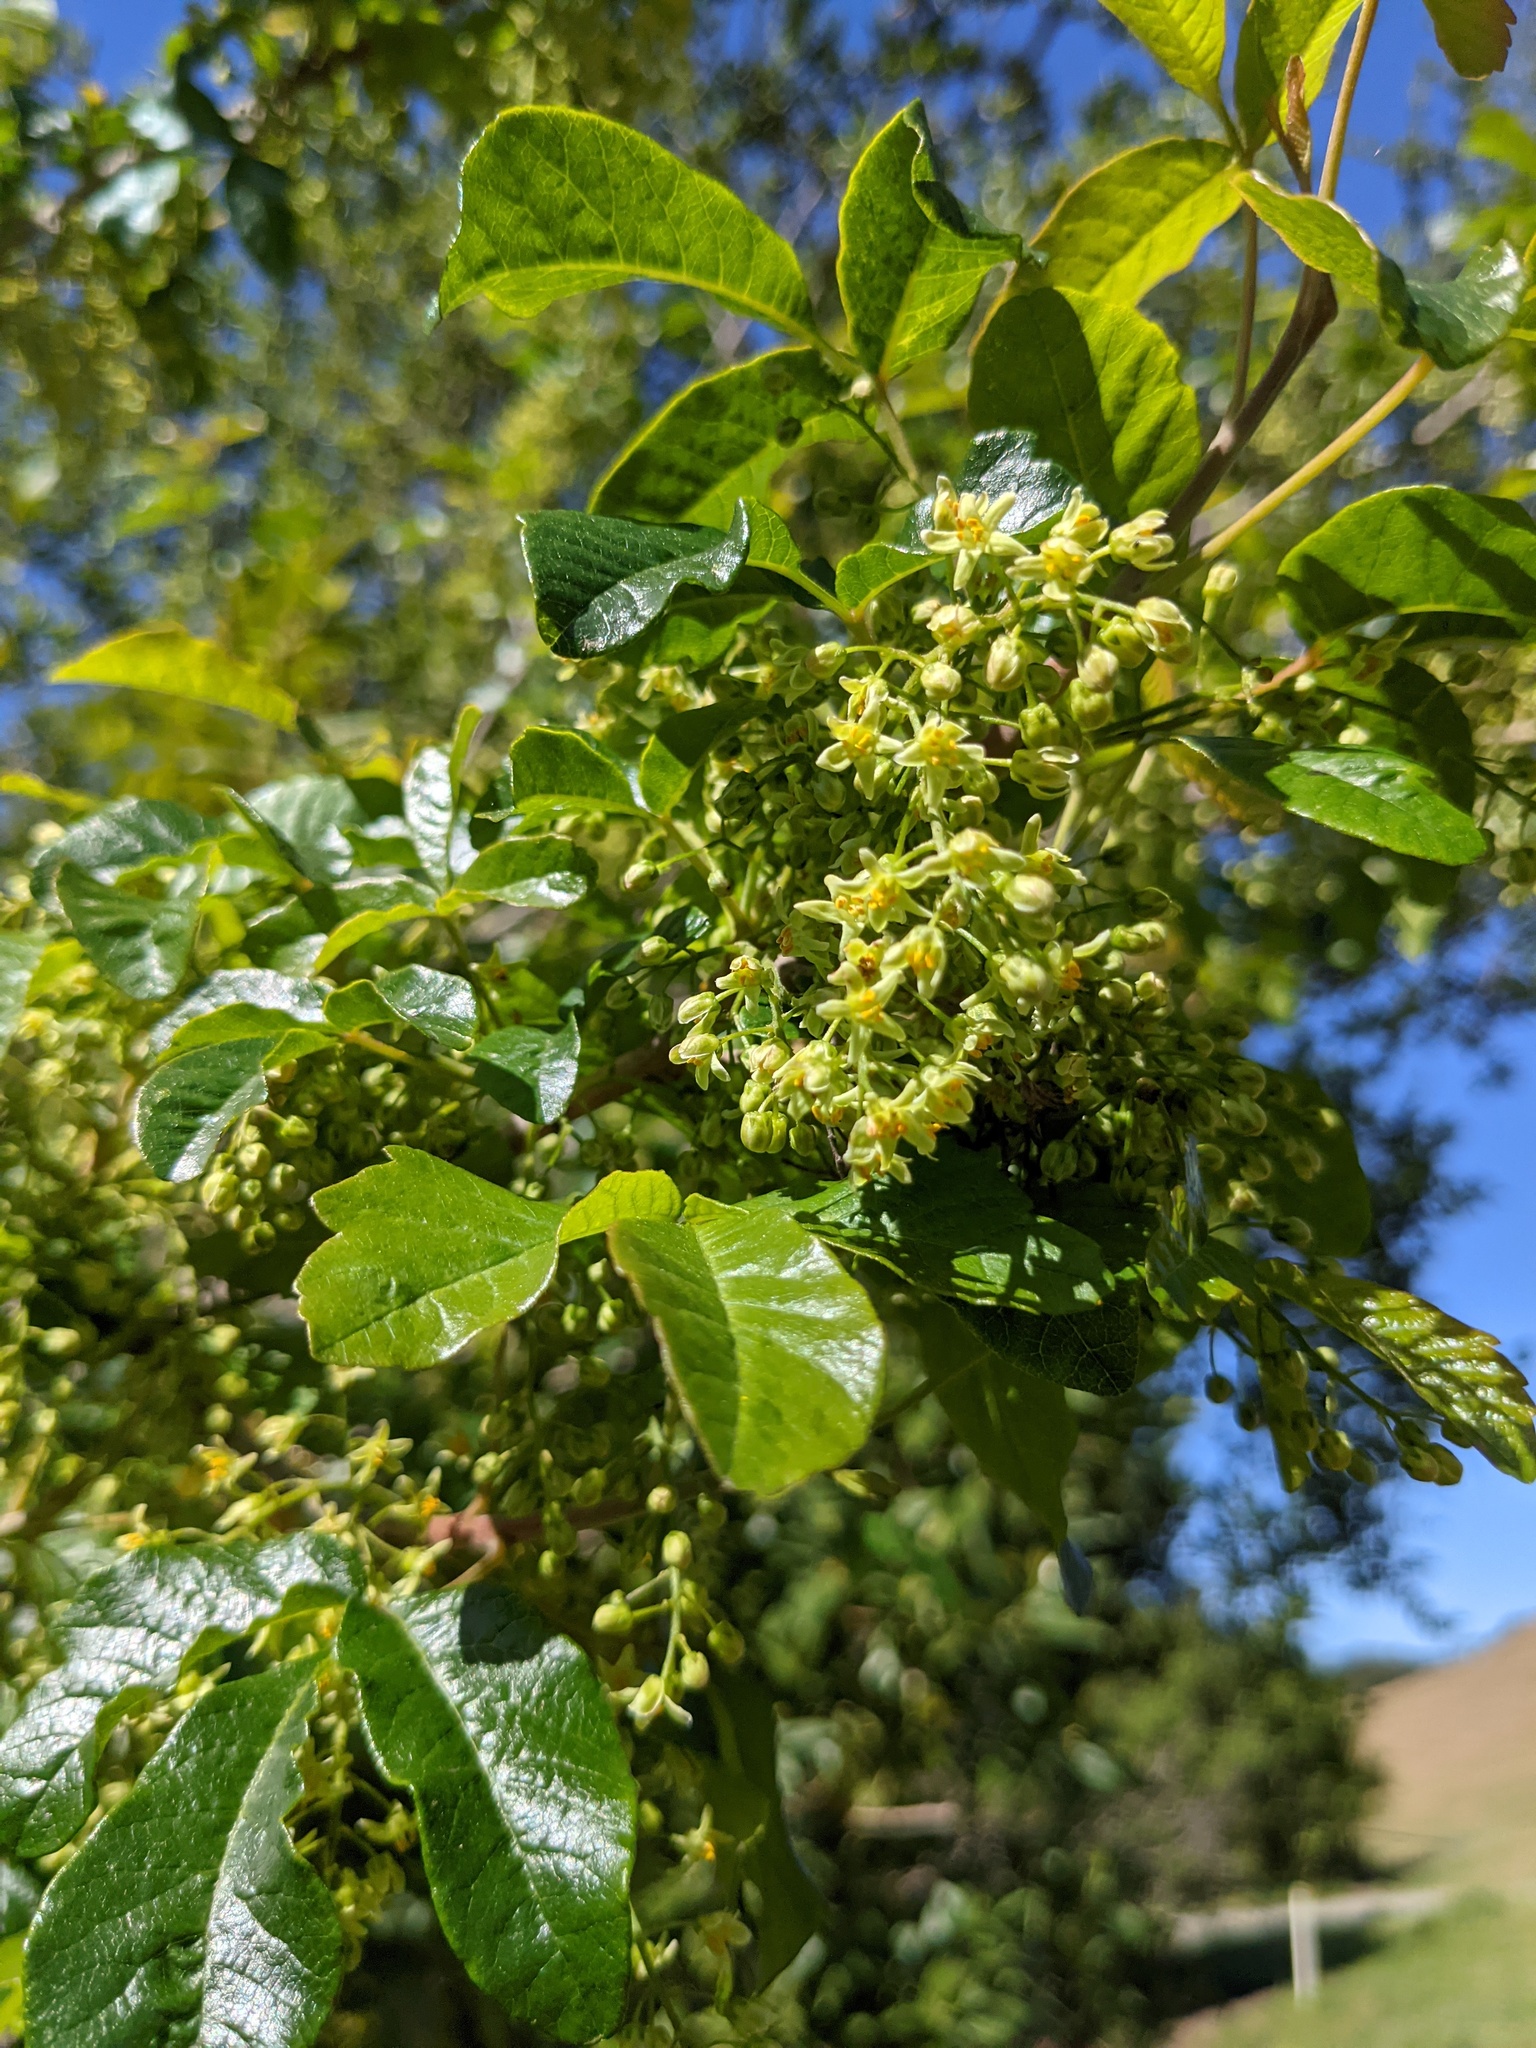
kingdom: Plantae
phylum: Tracheophyta
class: Magnoliopsida
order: Sapindales
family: Anacardiaceae
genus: Toxicodendron
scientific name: Toxicodendron diversilobum
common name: Pacific poison-oak
